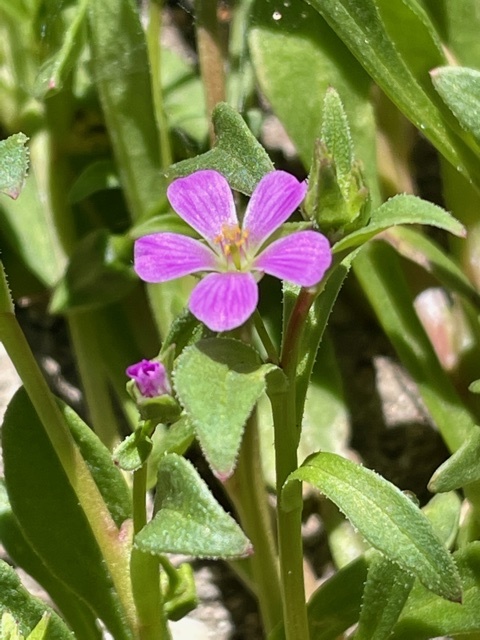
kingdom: Plantae
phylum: Tracheophyta
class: Magnoliopsida
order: Caryophyllales
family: Montiaceae
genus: Calandrinia
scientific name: Calandrinia menziesii
